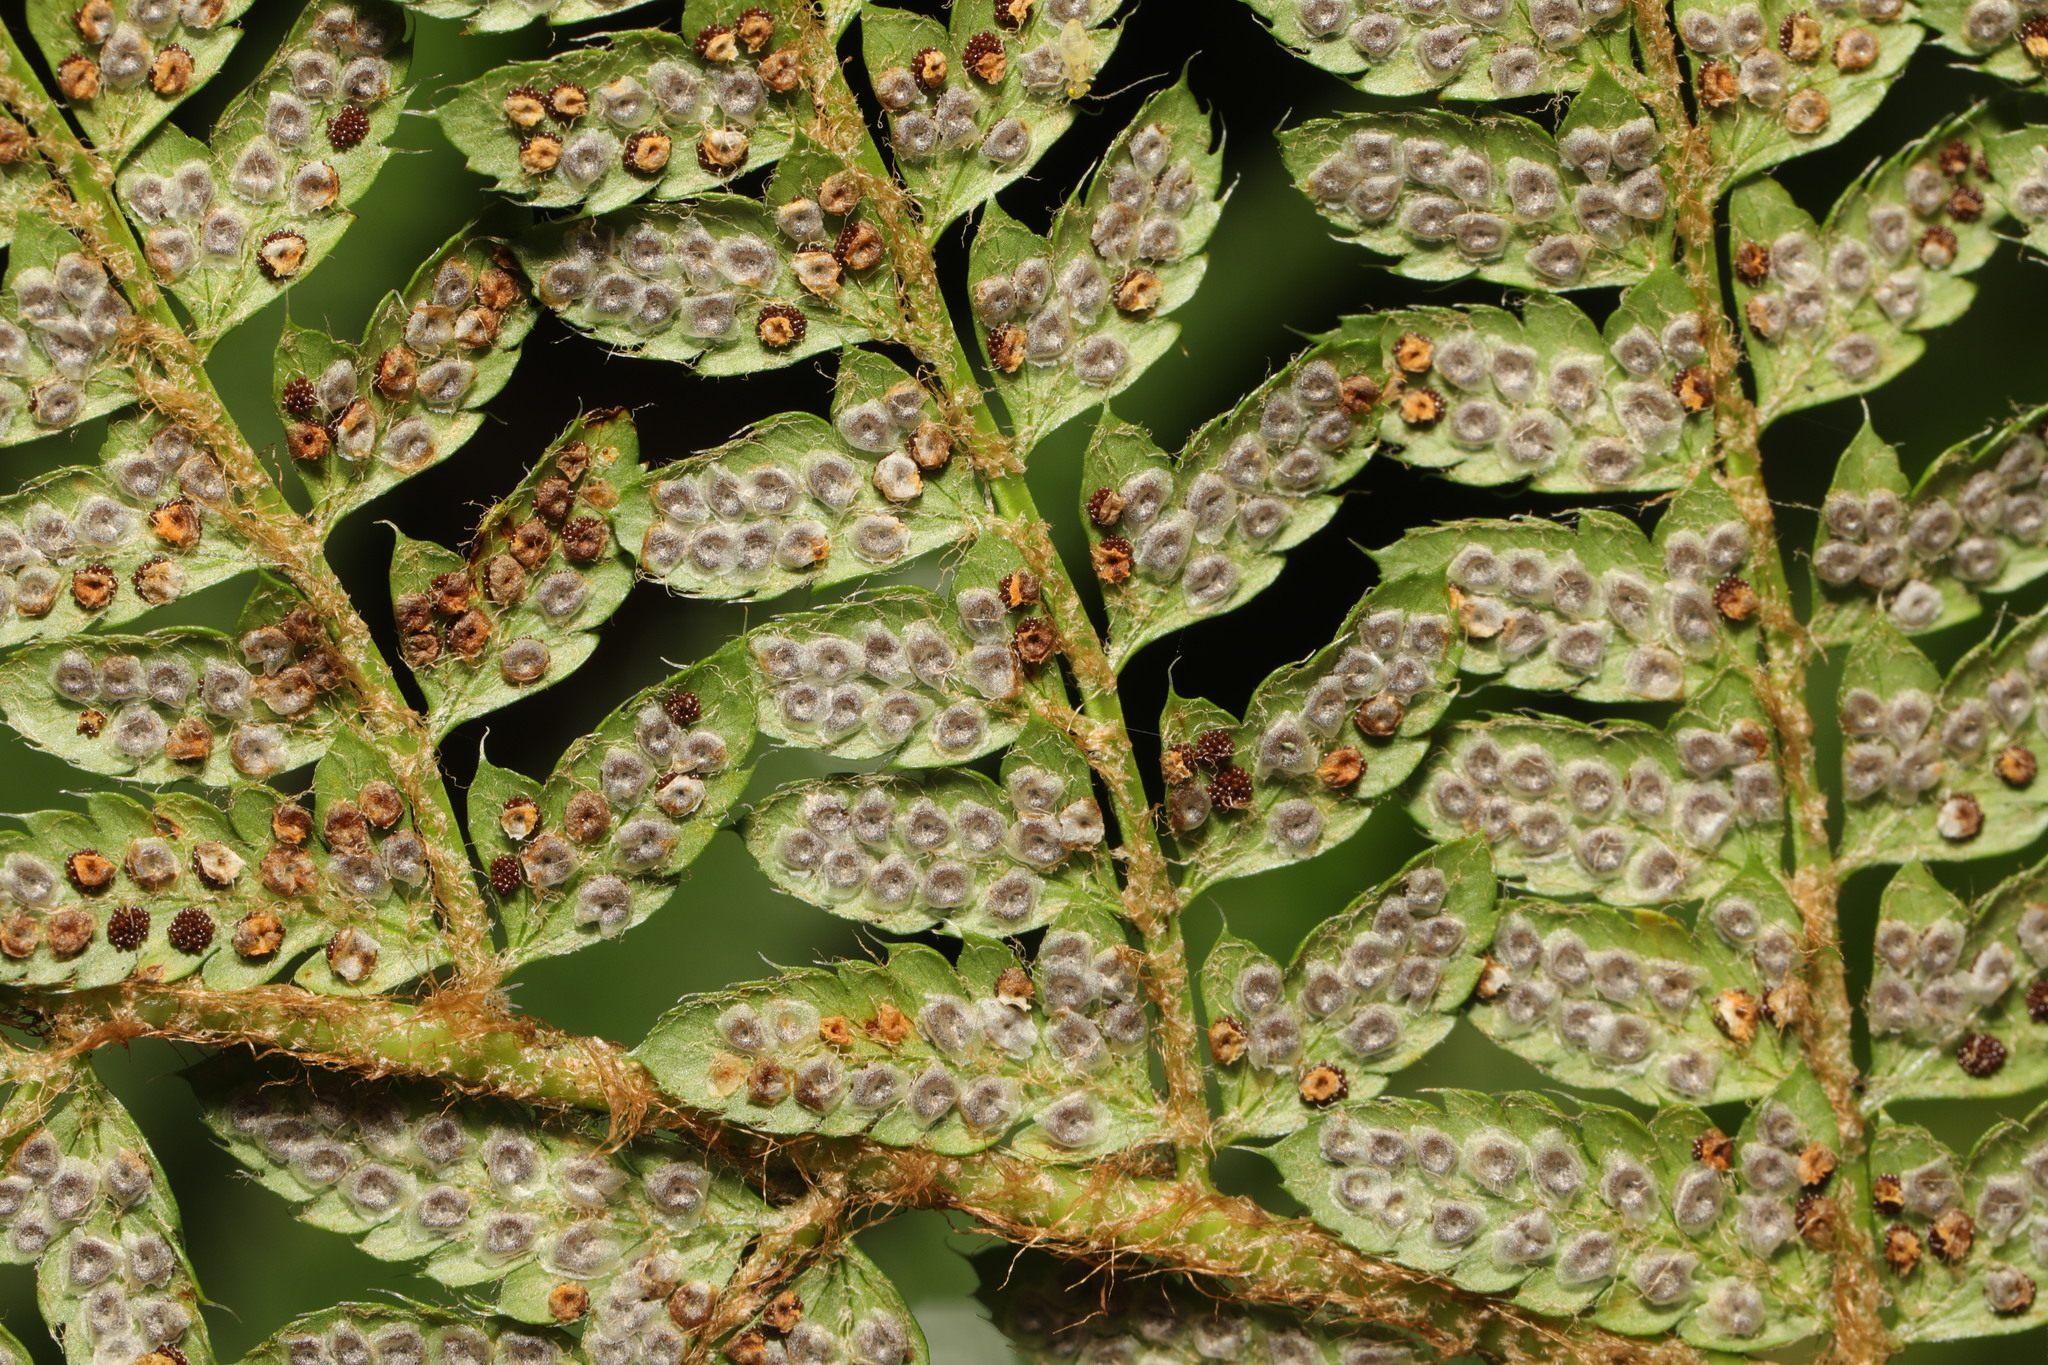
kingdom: Plantae
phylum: Tracheophyta
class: Polypodiopsida
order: Polypodiales
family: Dryopteridaceae
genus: Polystichum
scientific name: Polystichum setiferum
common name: Soft shield-fern
